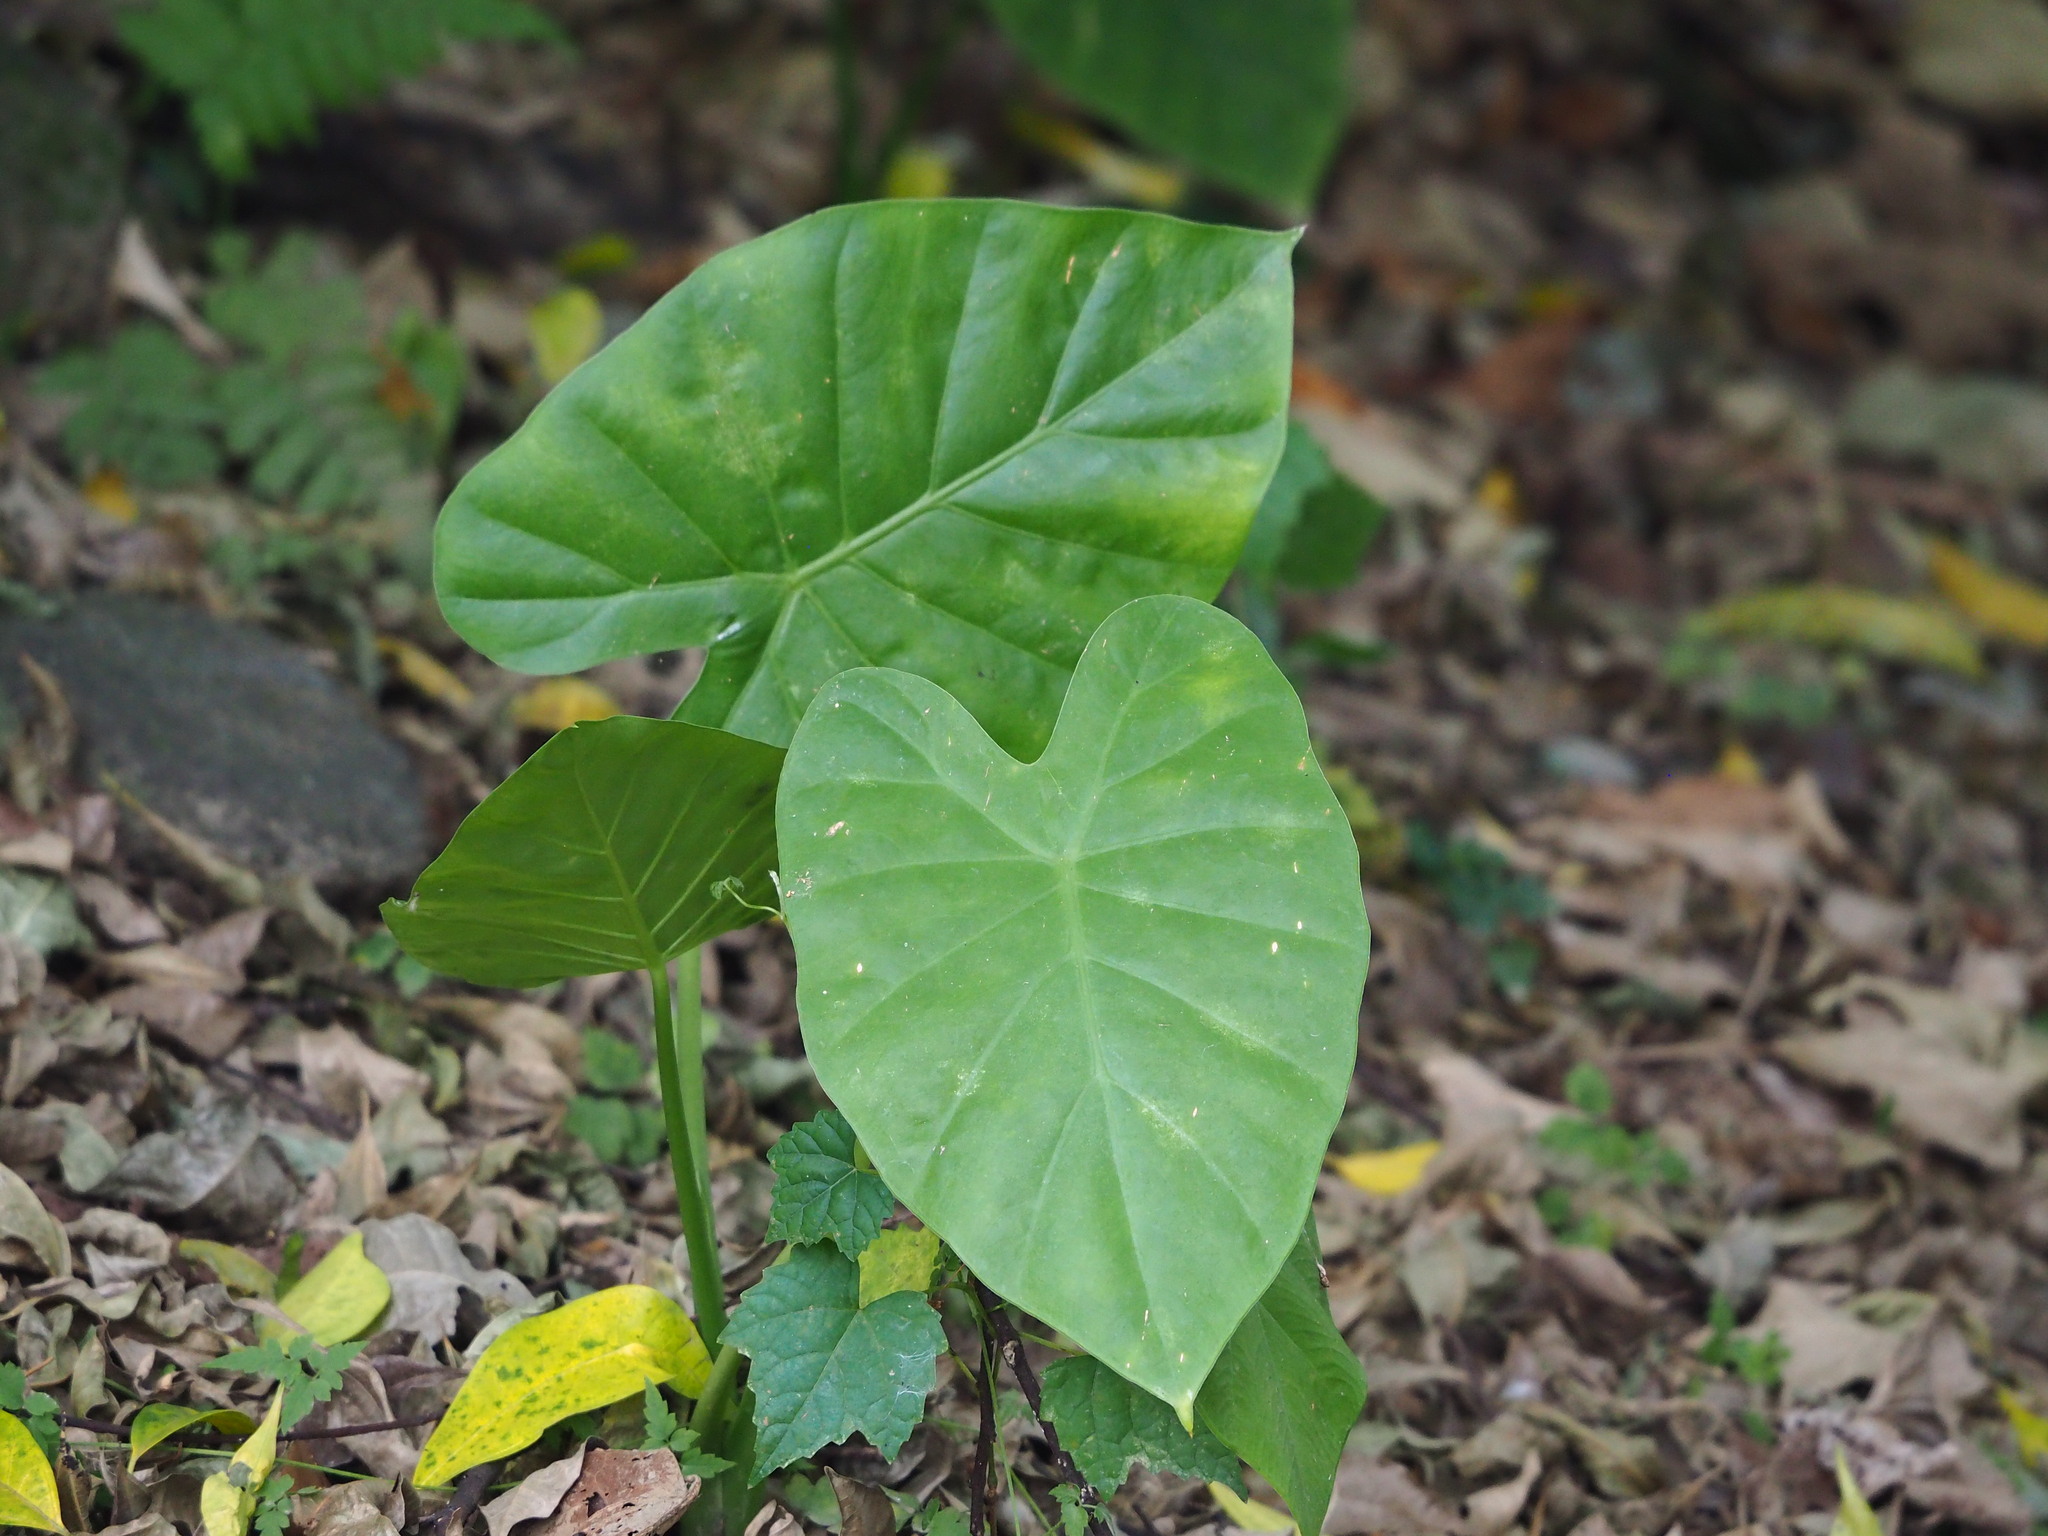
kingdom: Plantae
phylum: Tracheophyta
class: Liliopsida
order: Alismatales
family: Araceae
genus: Alocasia
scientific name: Alocasia odora
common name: Asian taro
